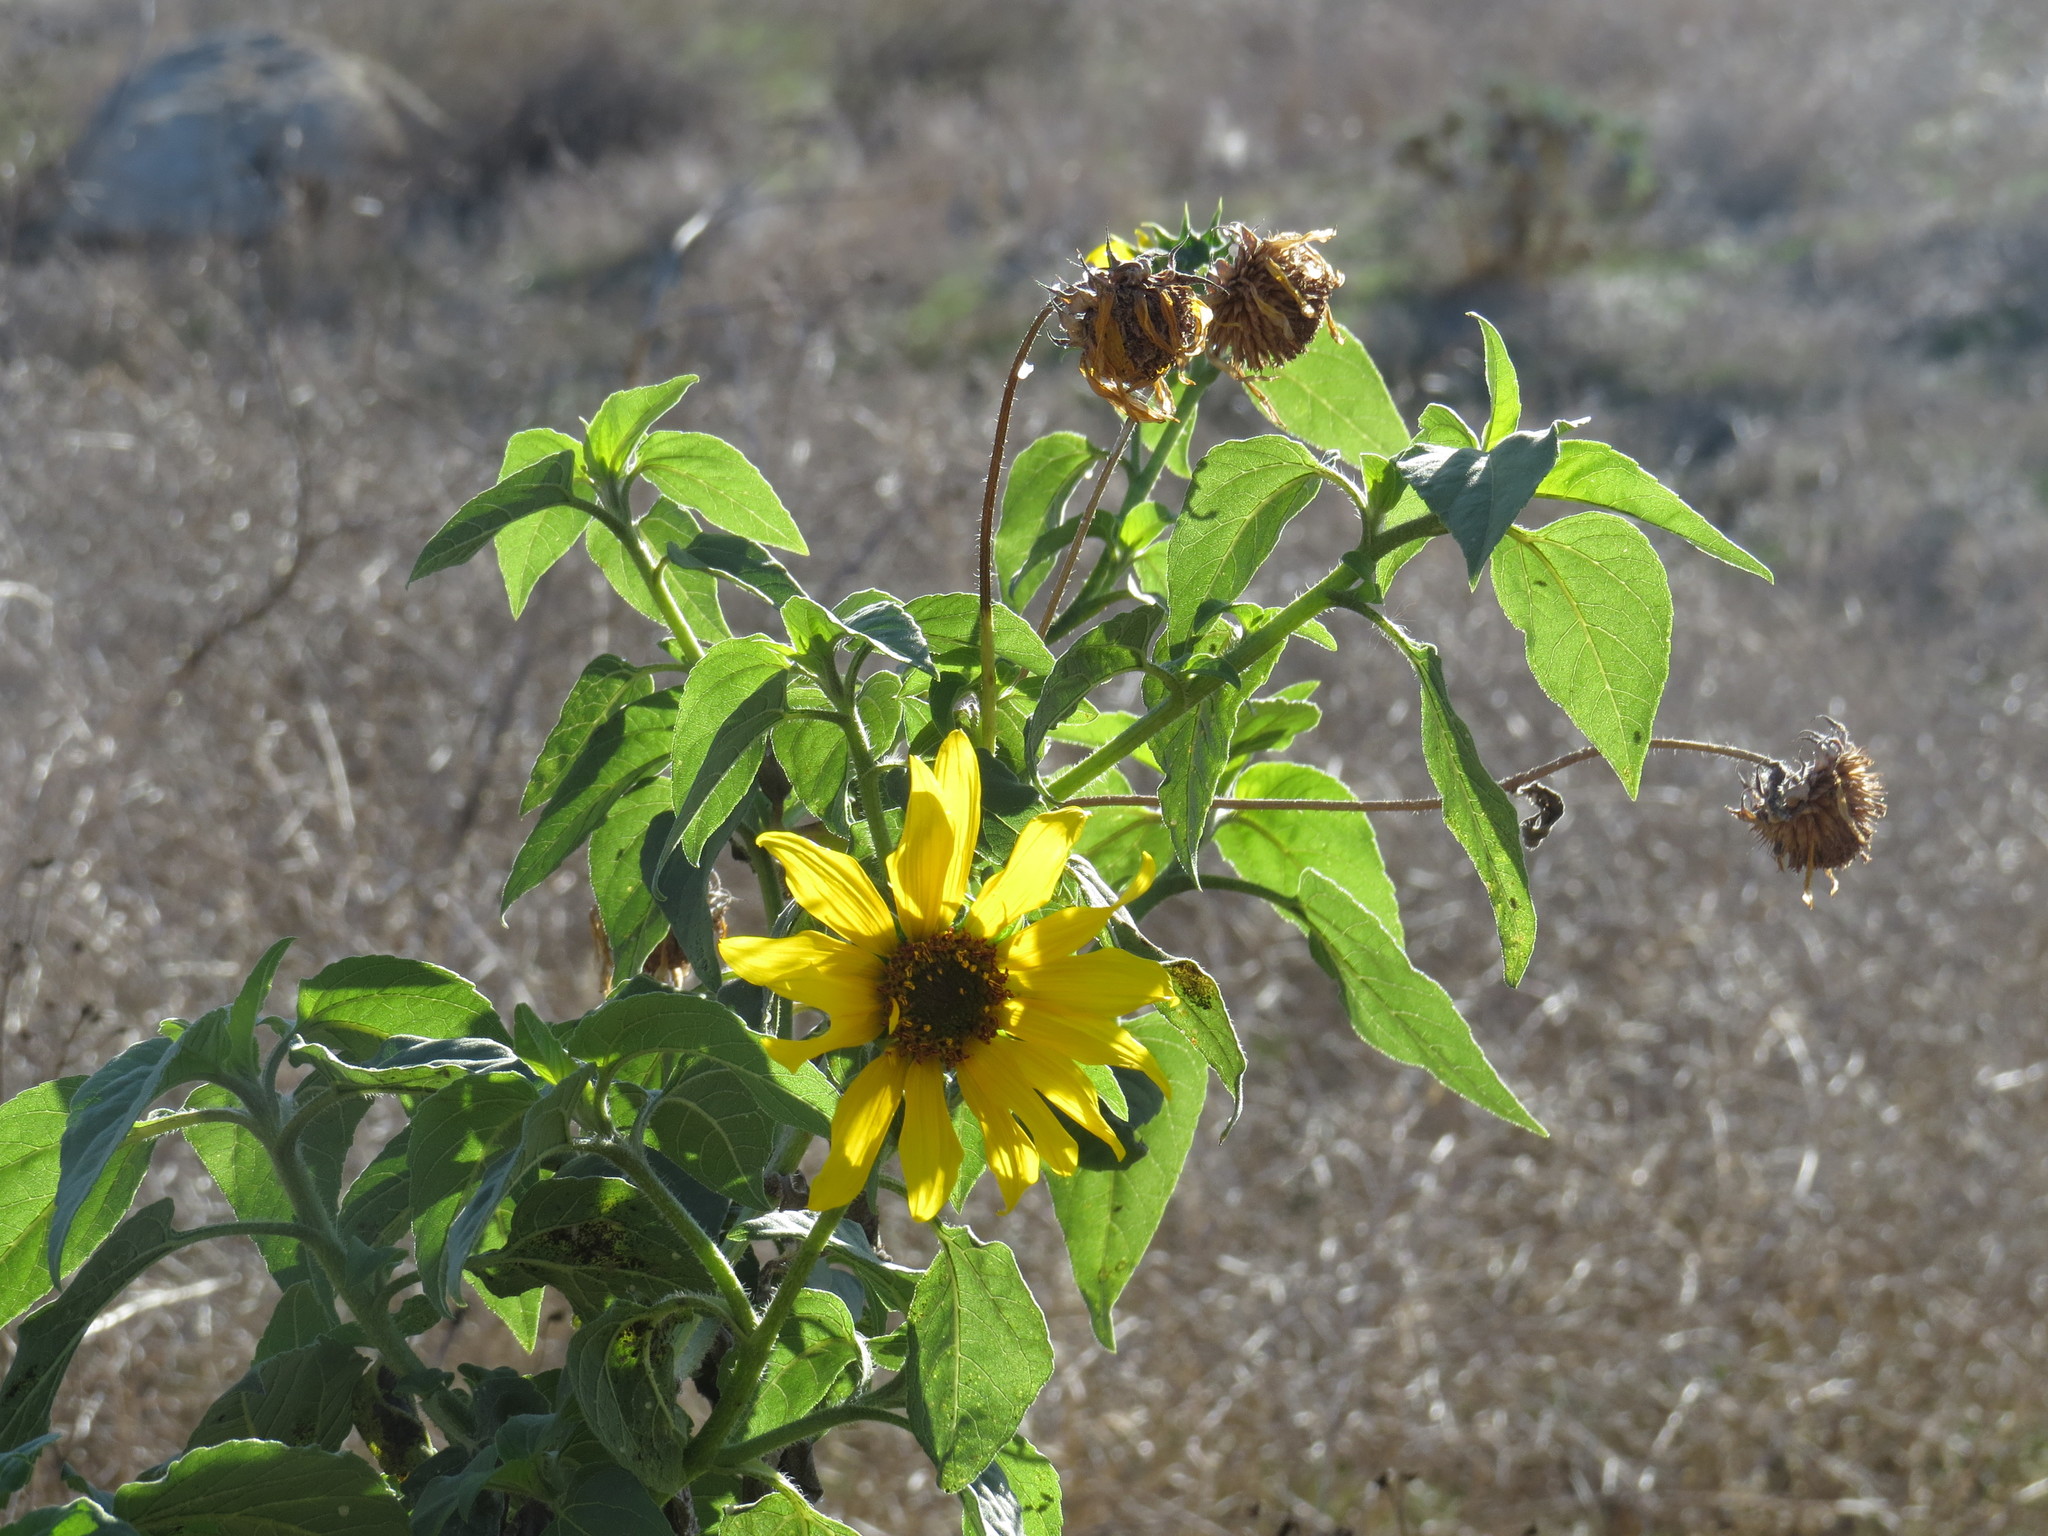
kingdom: Plantae
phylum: Tracheophyta
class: Magnoliopsida
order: Asterales
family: Asteraceae
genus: Helianthus
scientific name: Helianthus annuus
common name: Sunflower
